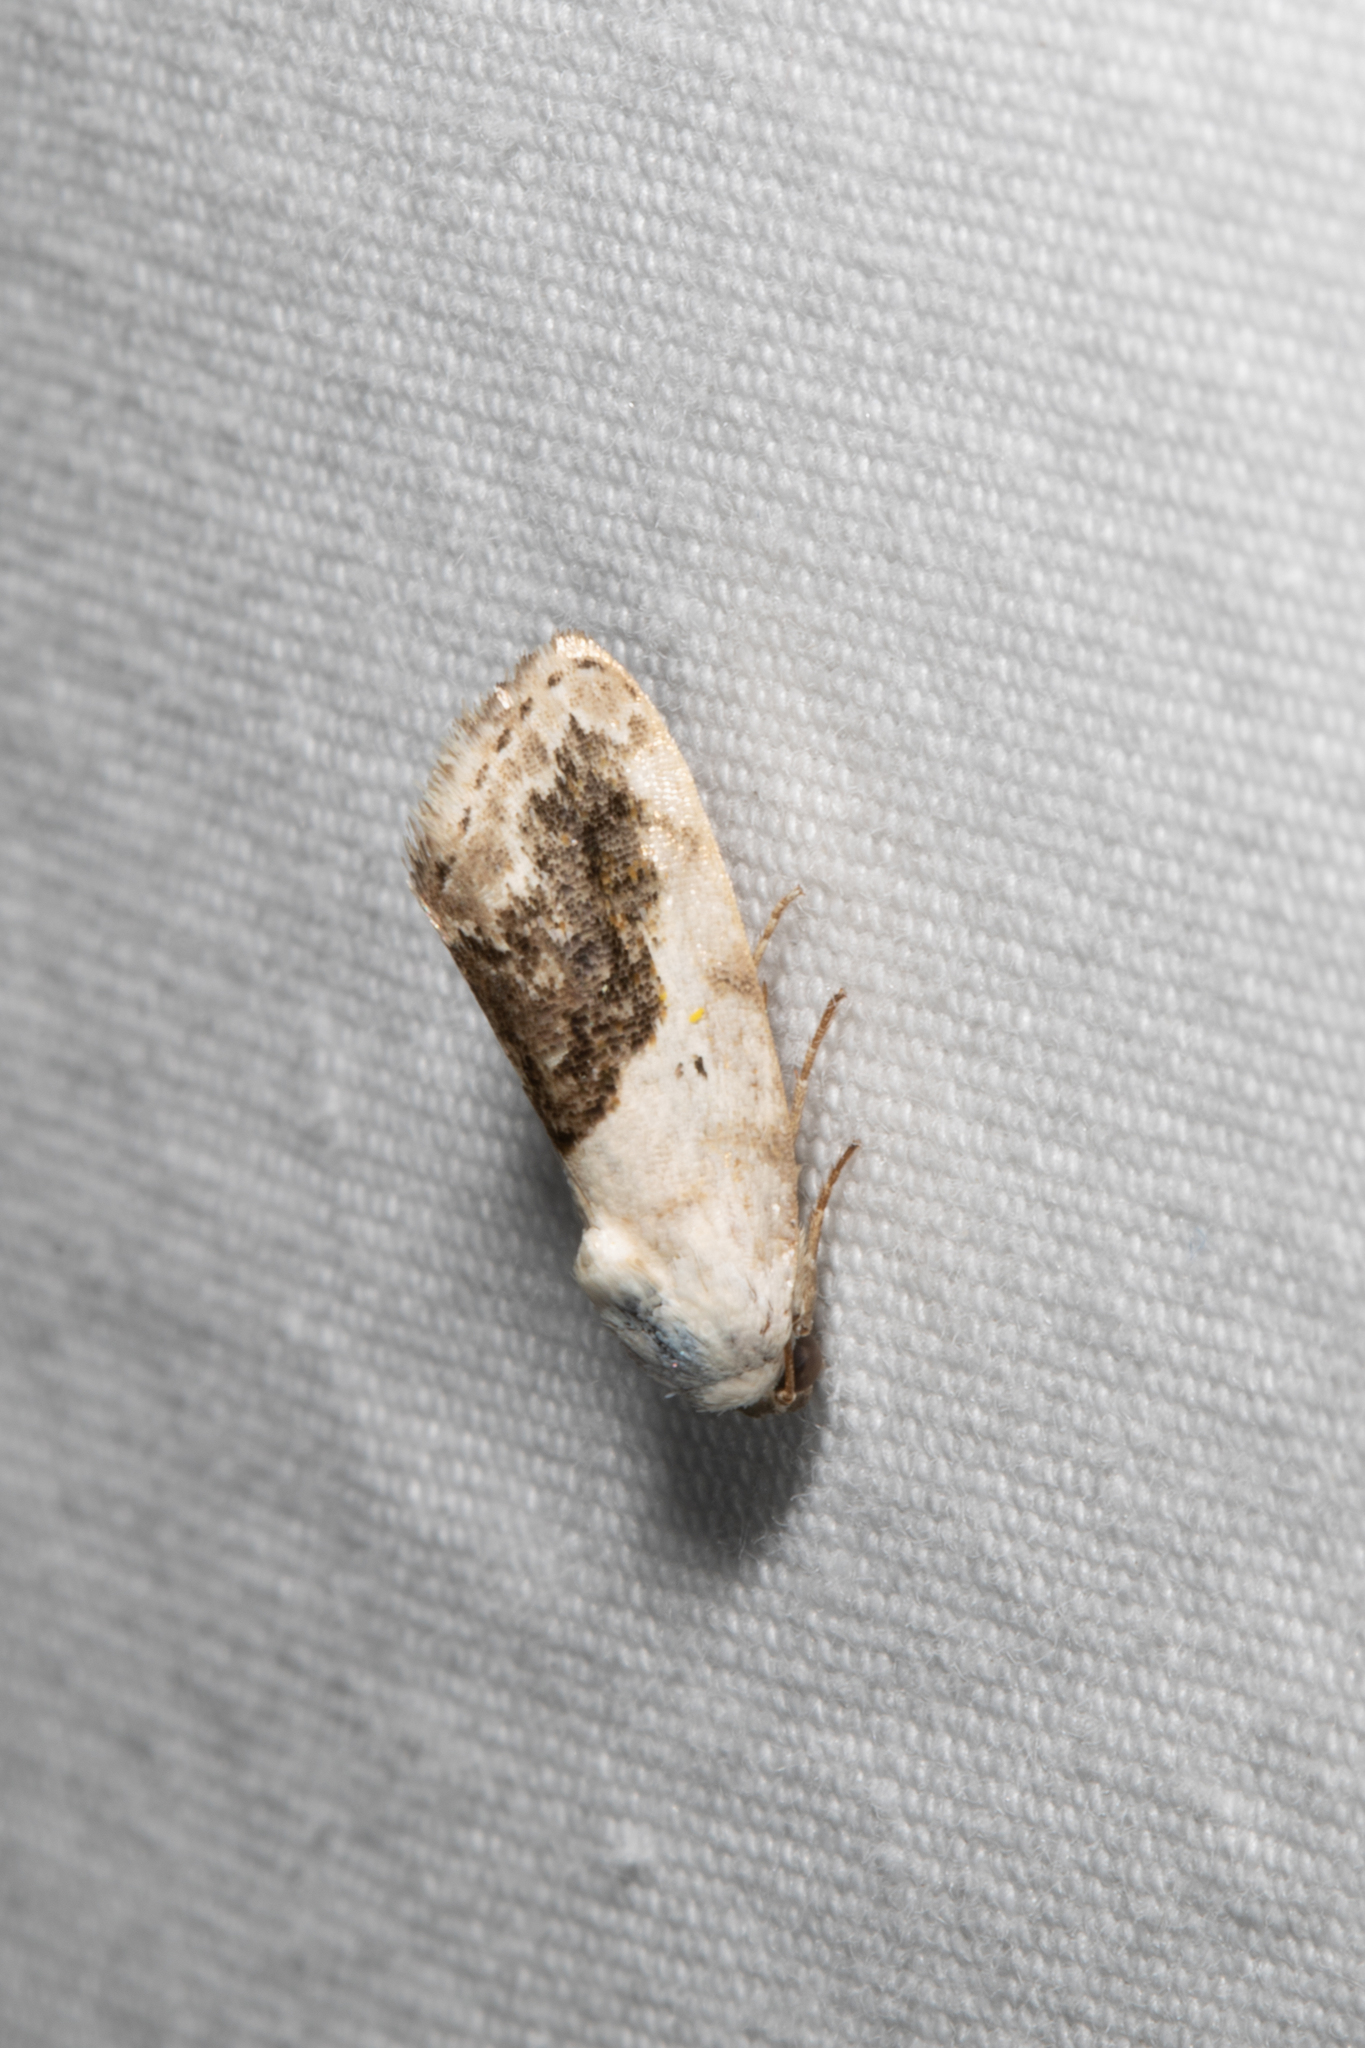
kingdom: Animalia
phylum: Arthropoda
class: Insecta
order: Lepidoptera
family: Noctuidae
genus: Acontia
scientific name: Acontia erastrioides
